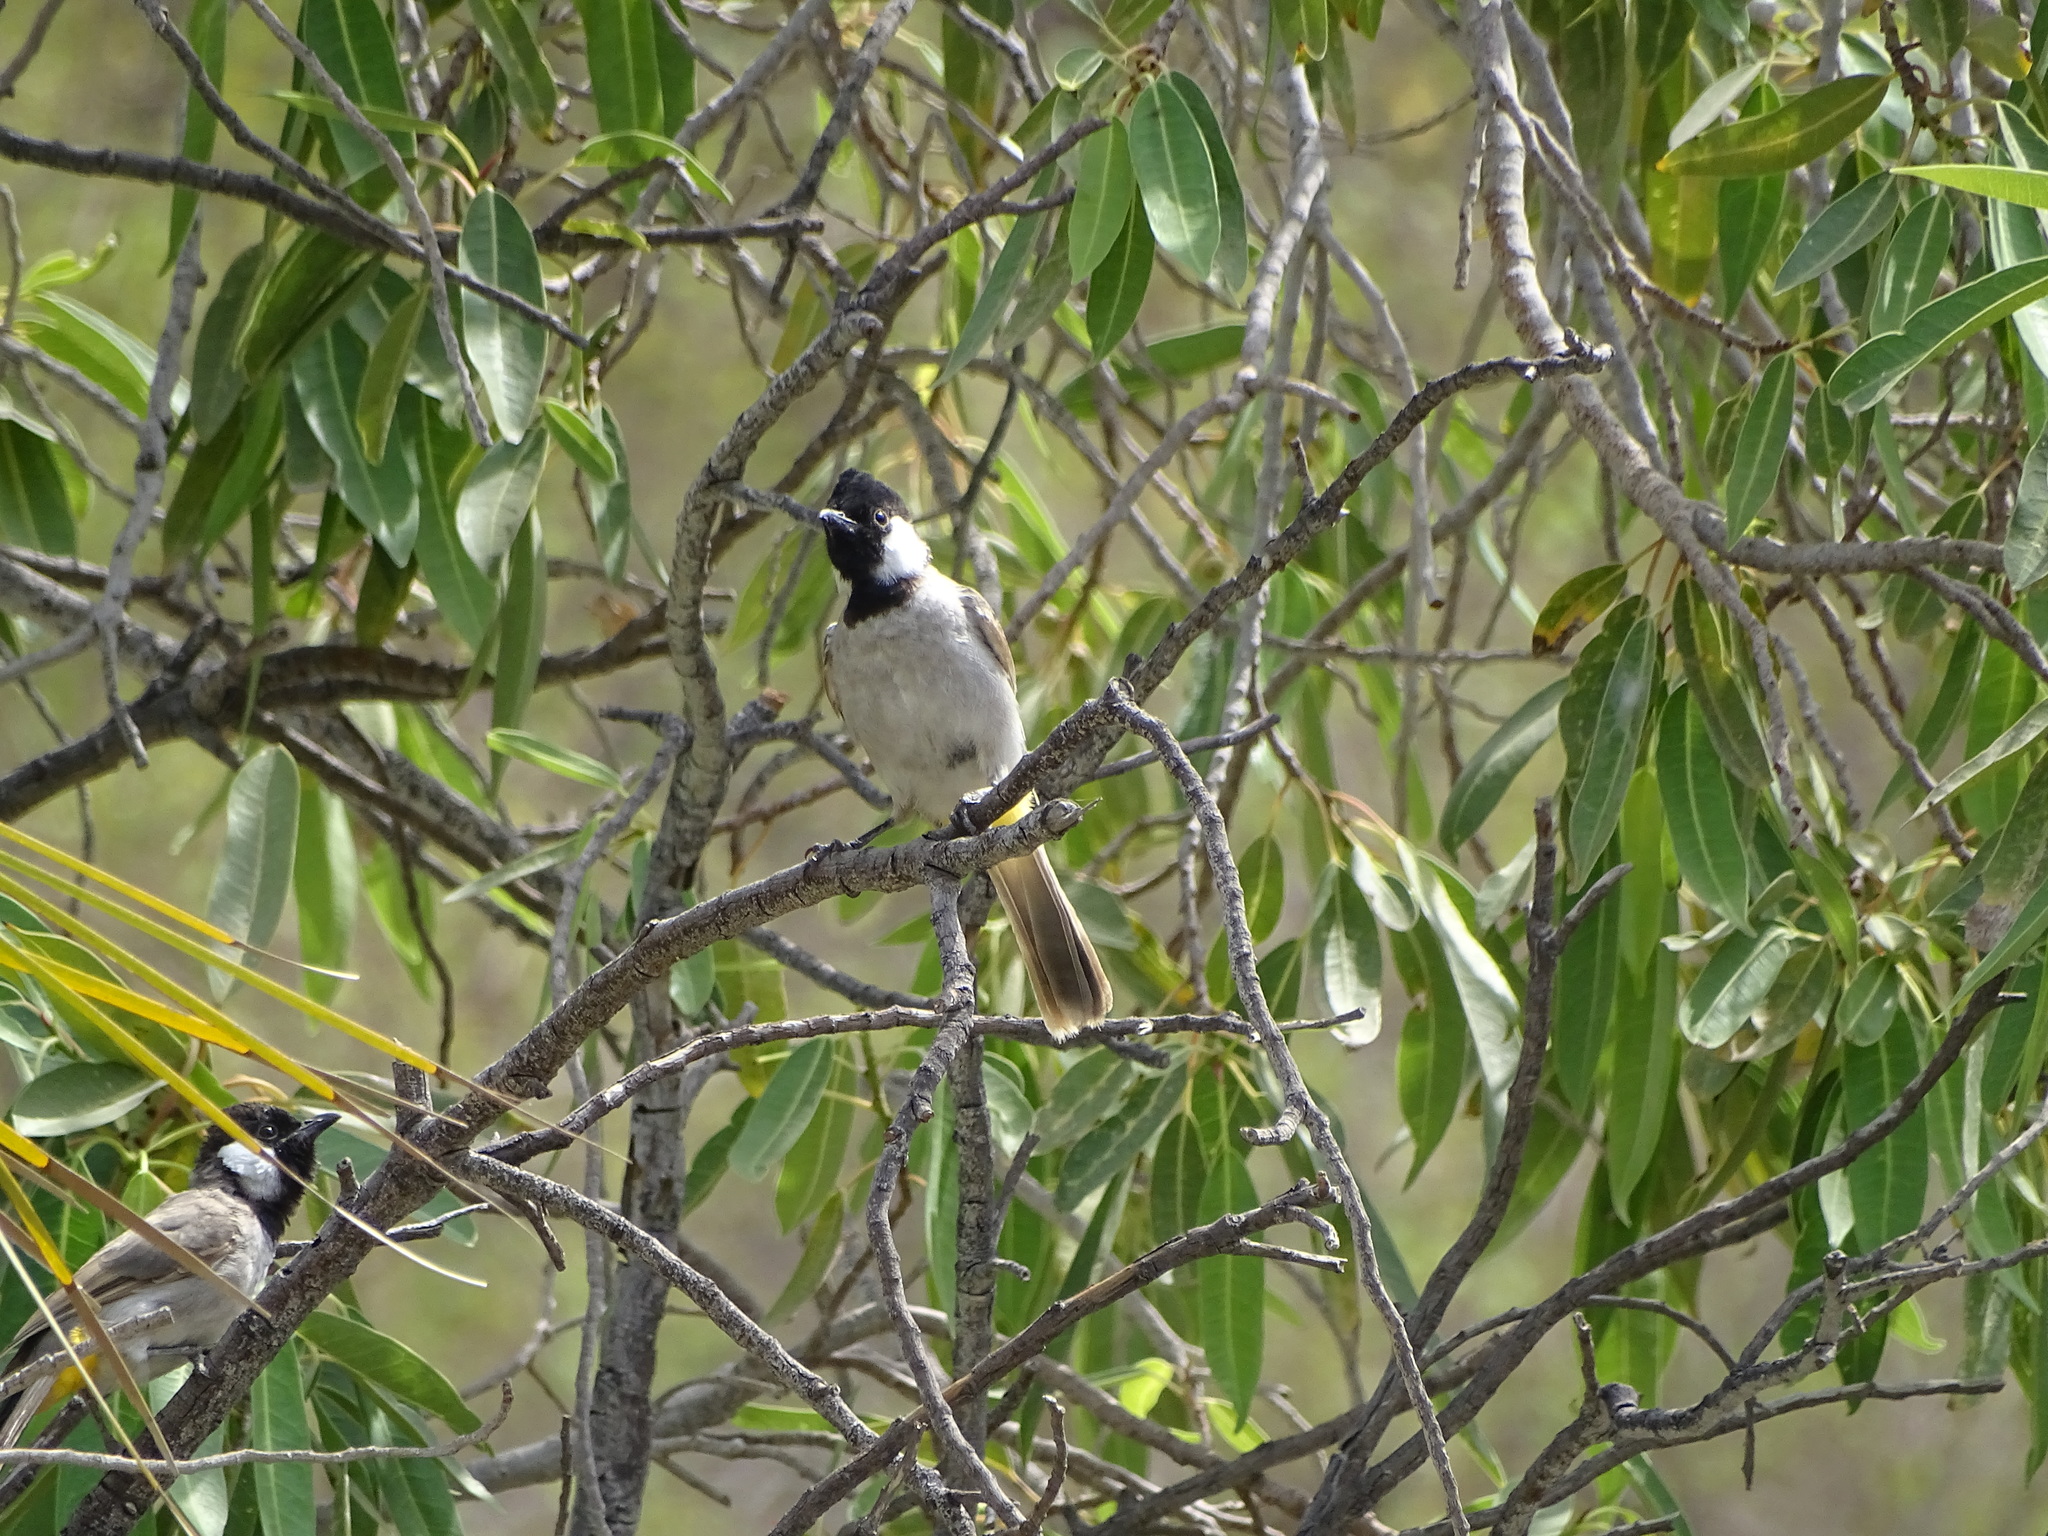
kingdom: Animalia
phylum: Chordata
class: Aves
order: Passeriformes
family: Pycnonotidae
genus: Pycnonotus
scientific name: Pycnonotus leucotis
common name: White-eared bulbul
